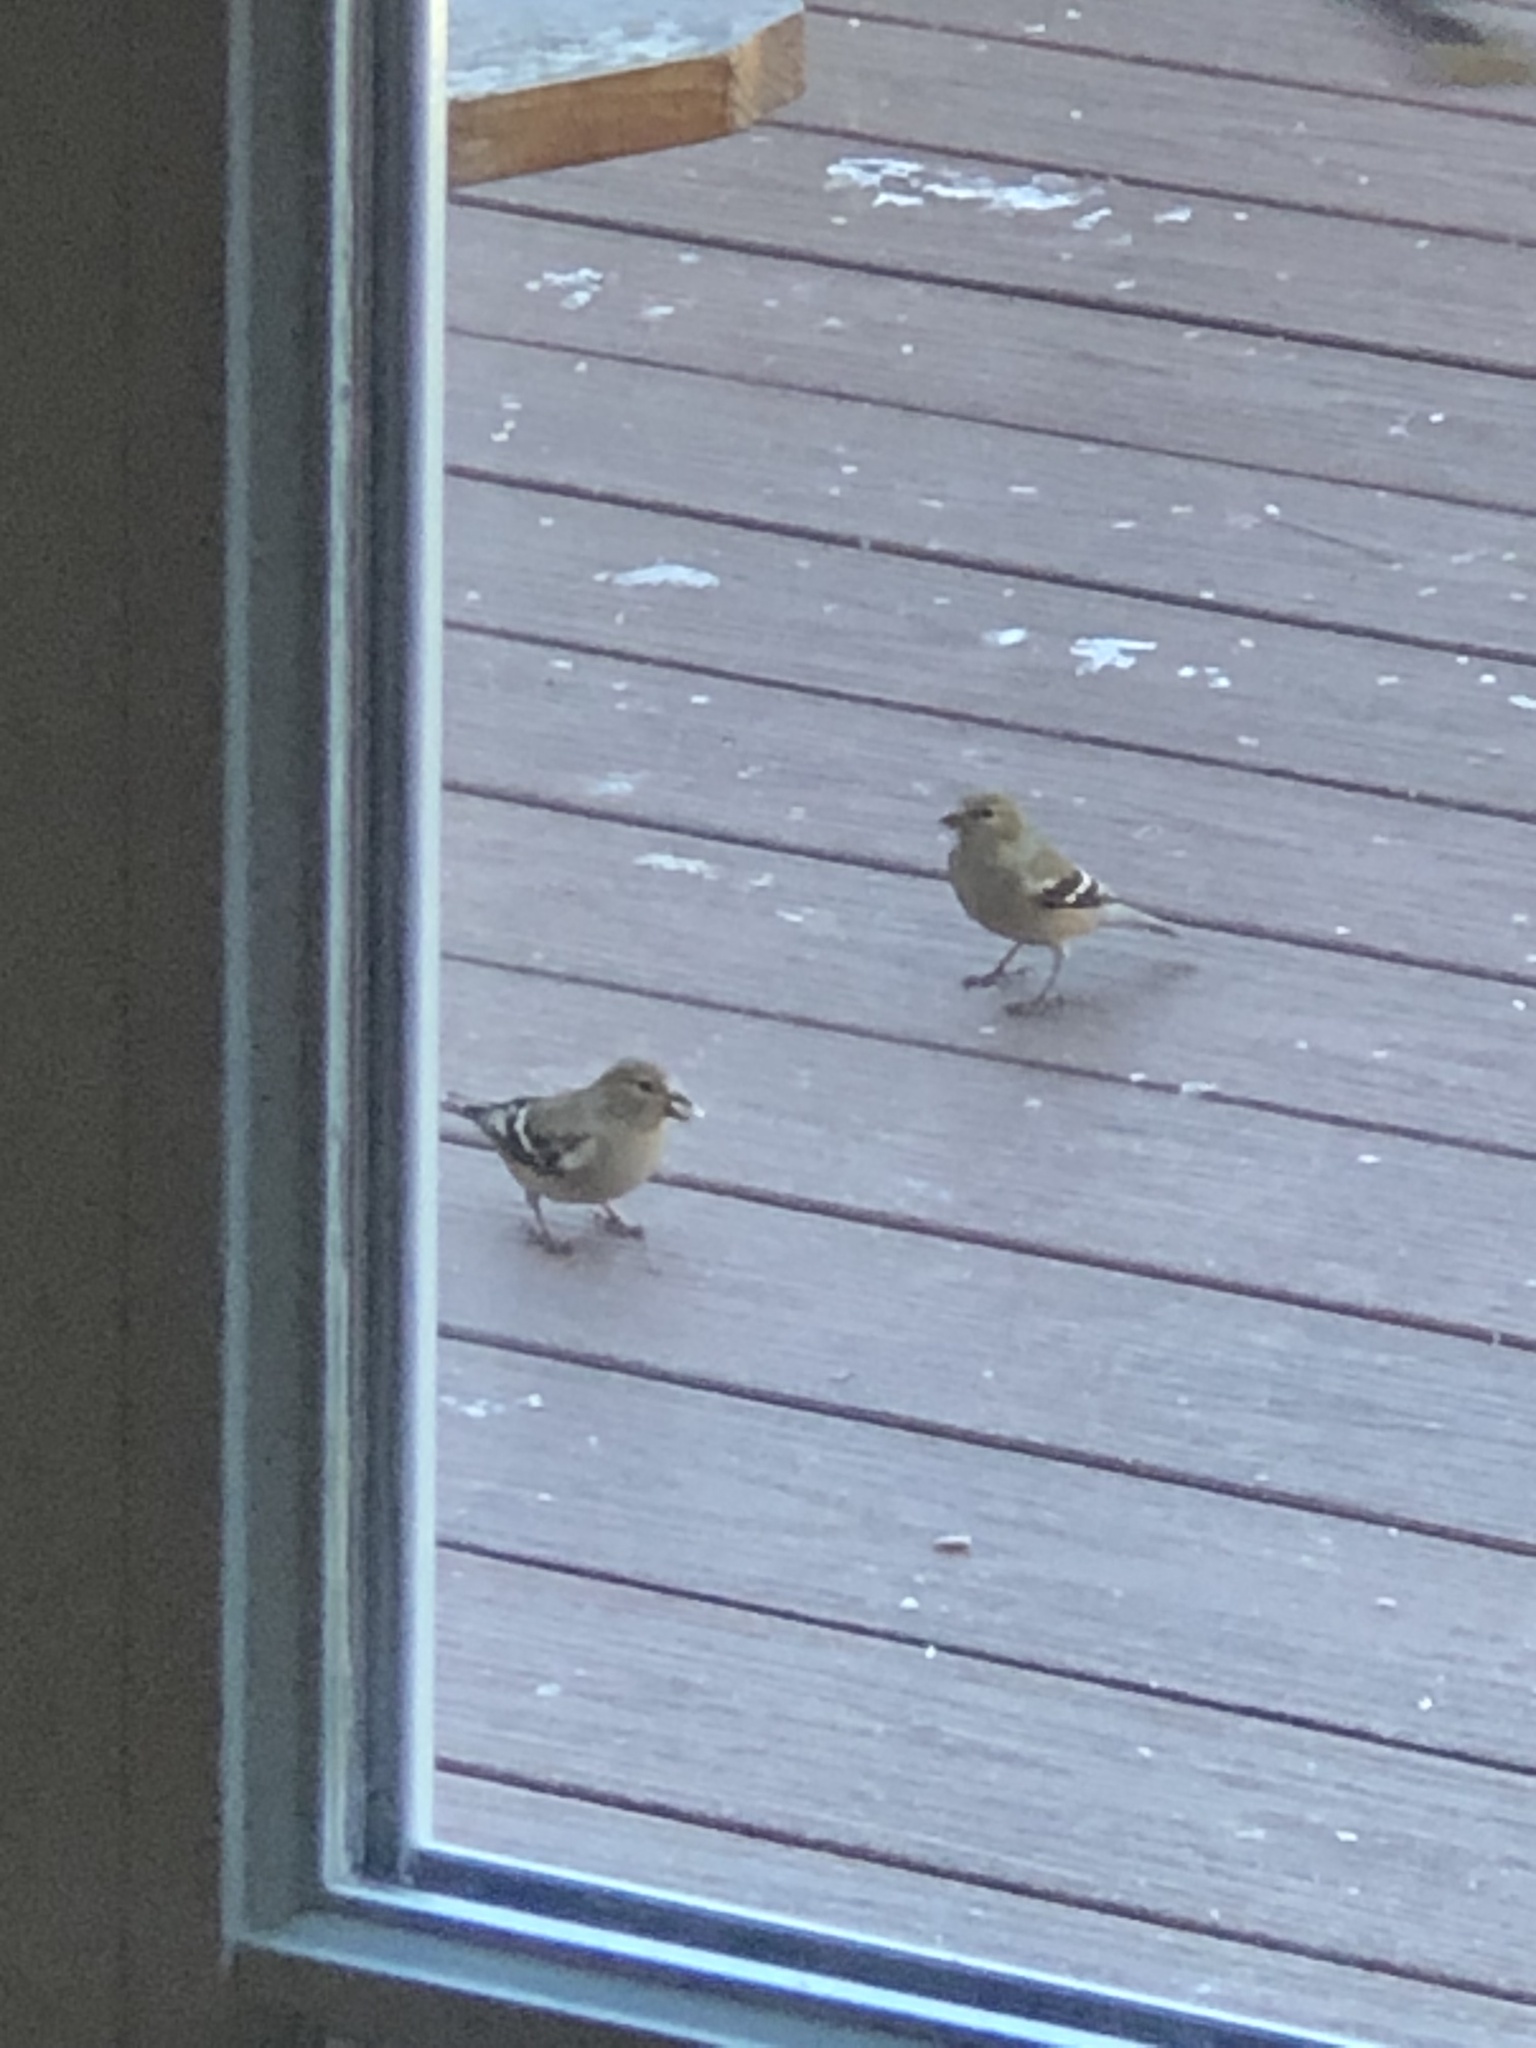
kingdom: Animalia
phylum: Chordata
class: Aves
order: Passeriformes
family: Fringillidae
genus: Spinus
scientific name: Spinus tristis
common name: American goldfinch
